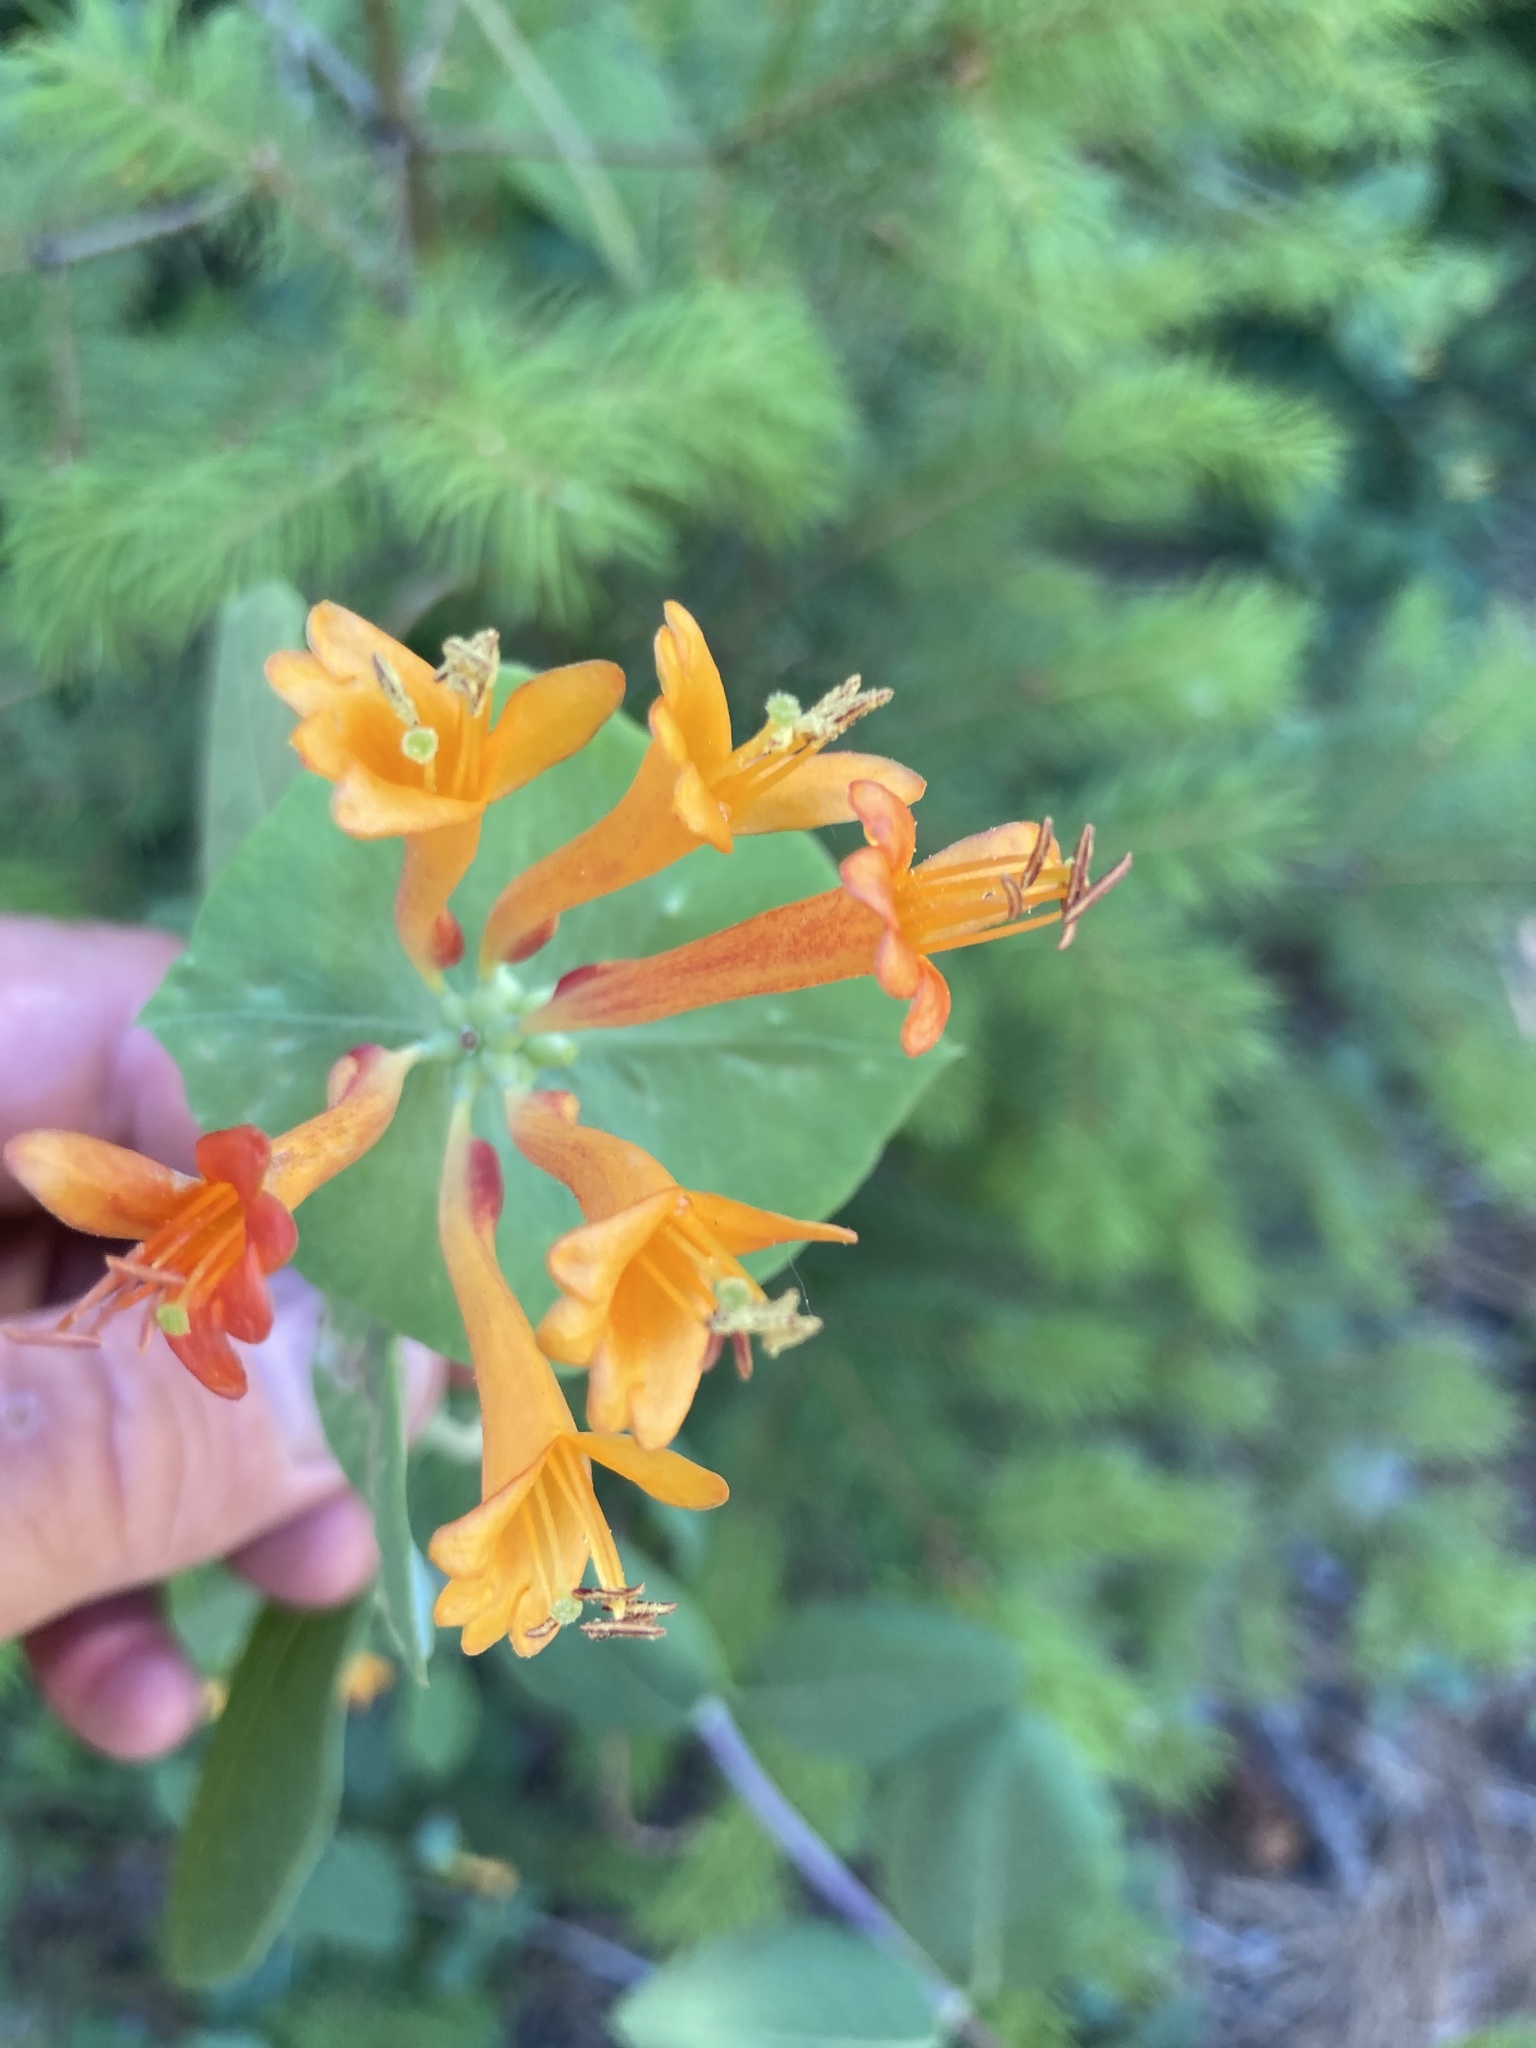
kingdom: Plantae
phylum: Tracheophyta
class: Magnoliopsida
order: Dipsacales
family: Caprifoliaceae
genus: Lonicera
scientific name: Lonicera ciliosa
